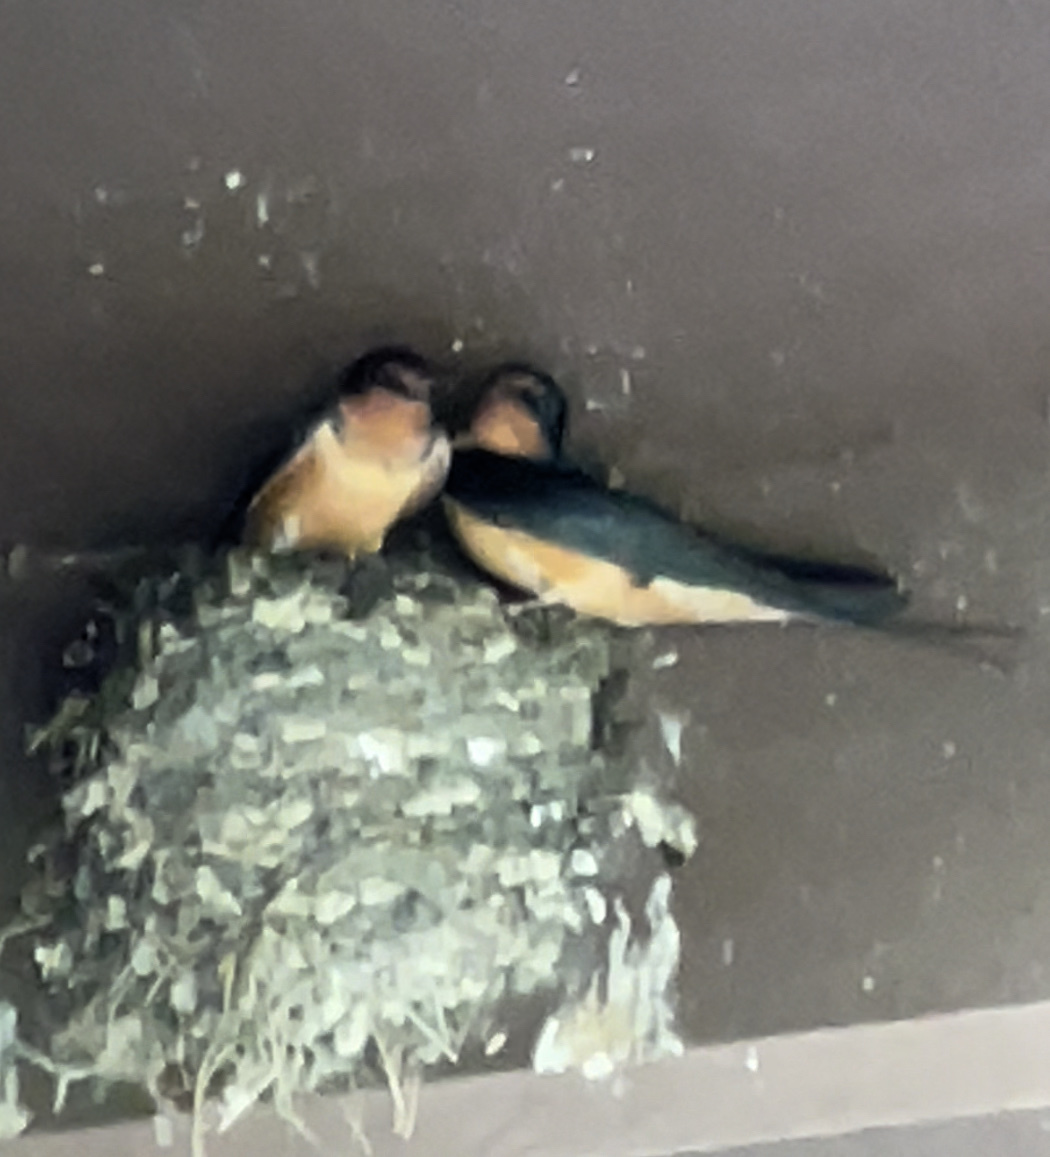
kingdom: Animalia
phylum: Chordata
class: Aves
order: Passeriformes
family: Hirundinidae
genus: Hirundo
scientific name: Hirundo rustica
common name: Barn swallow
